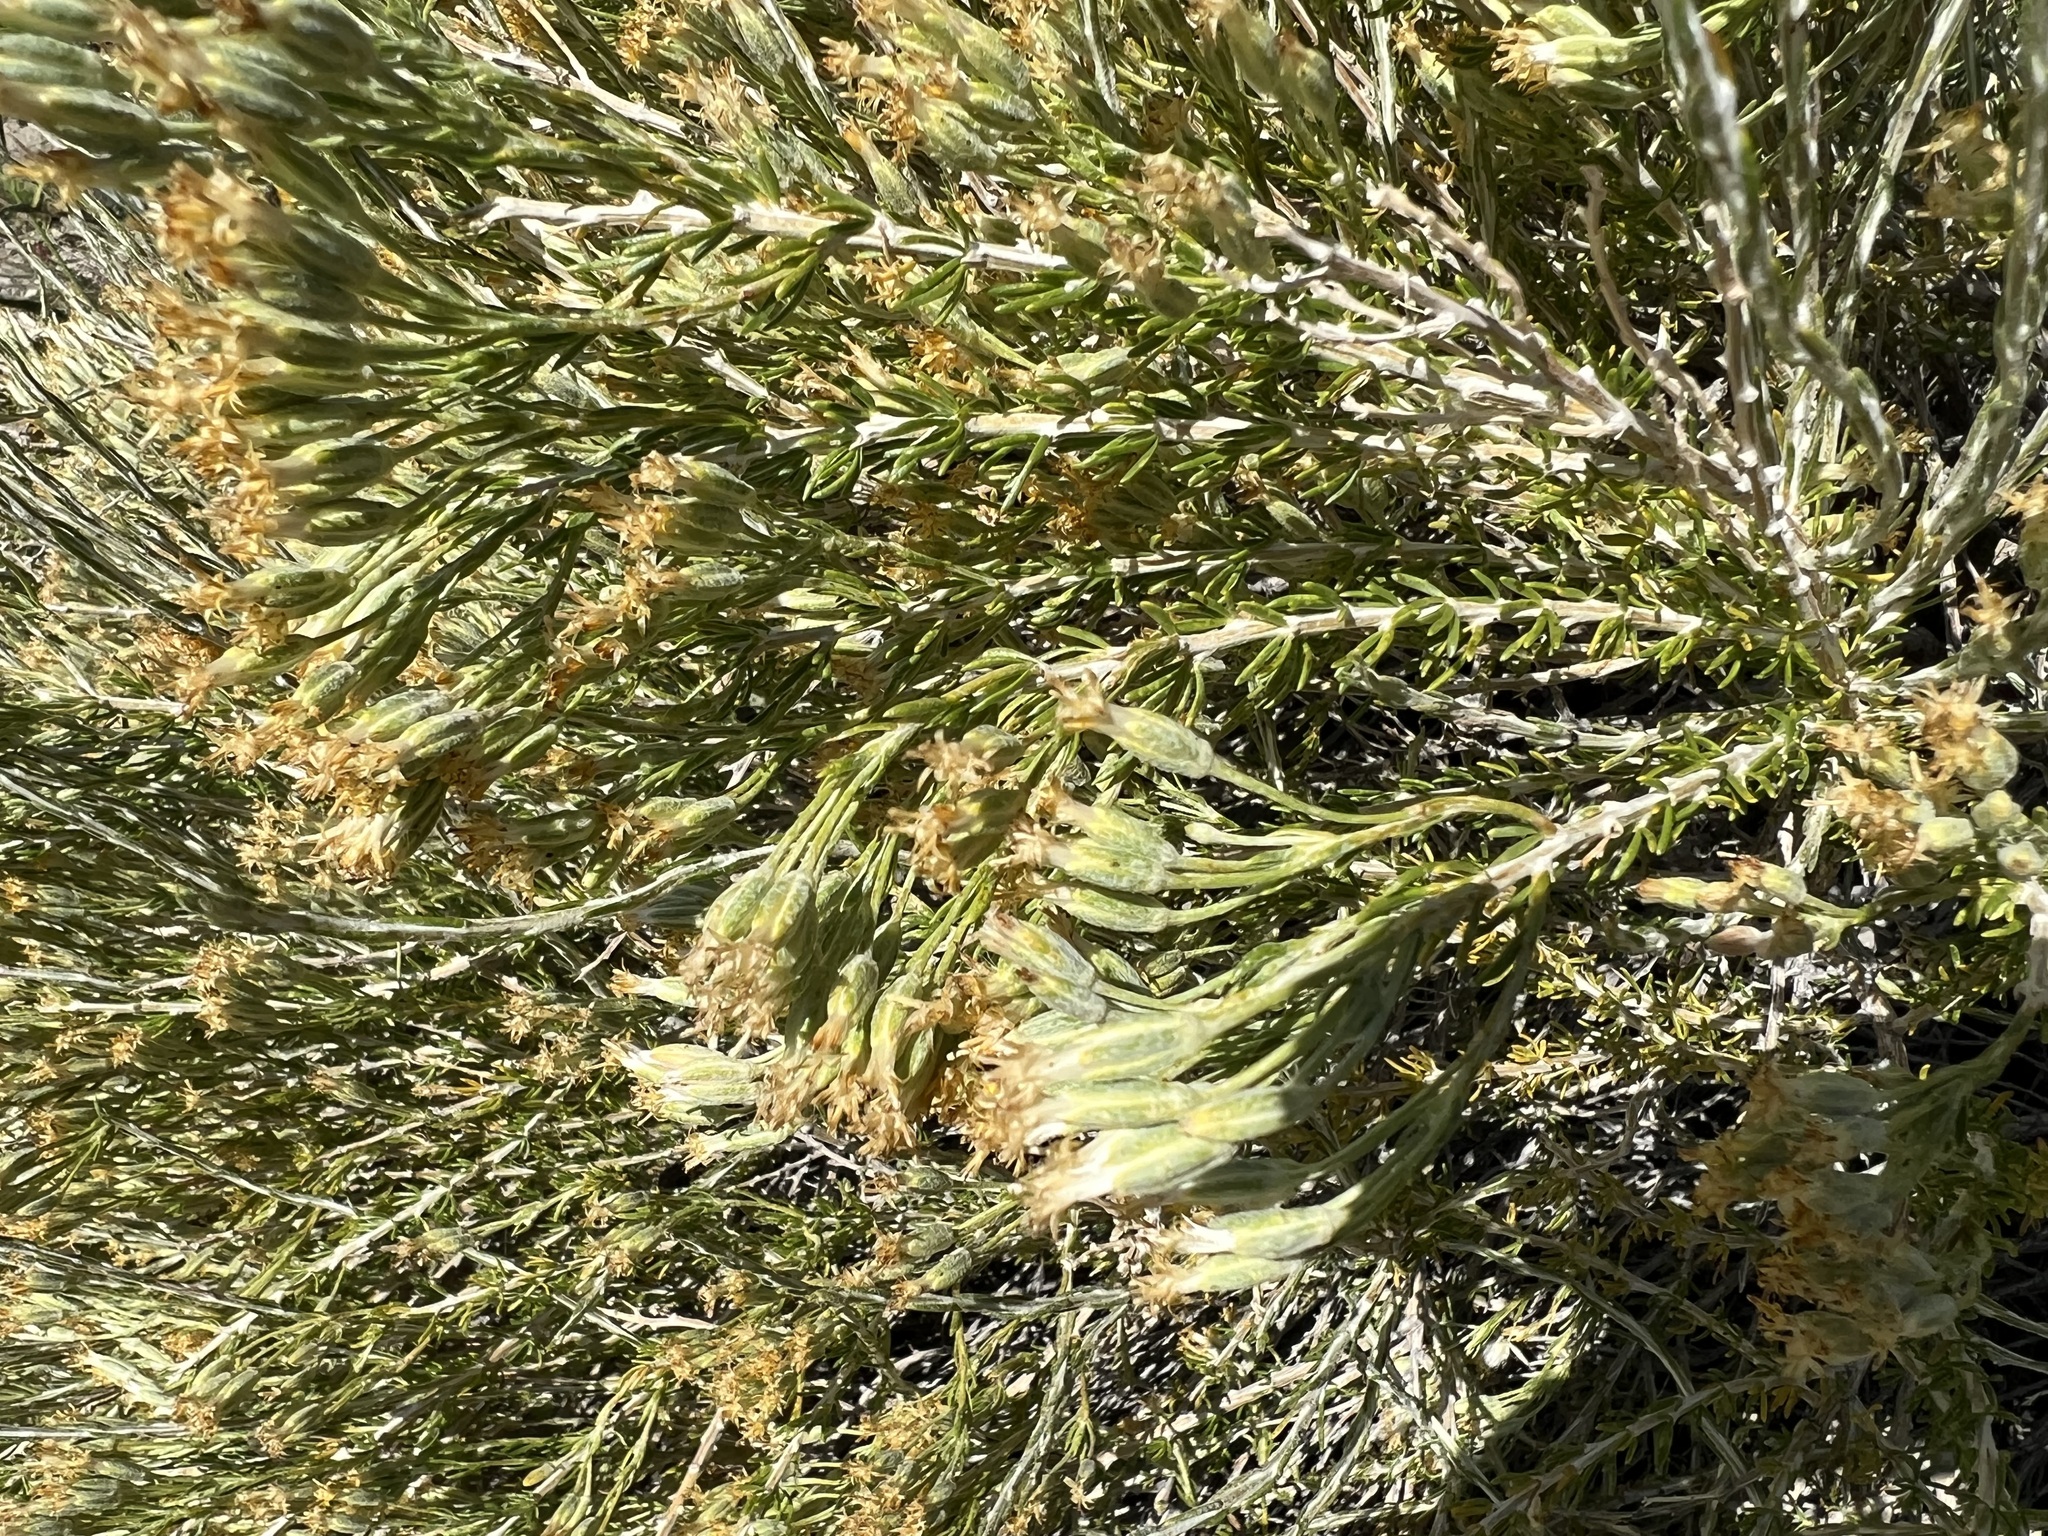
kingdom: Plantae
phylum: Tracheophyta
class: Magnoliopsida
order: Asterales
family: Asteraceae
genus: Tetradymia
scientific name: Tetradymia glabrata
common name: Smooth tetradymia
